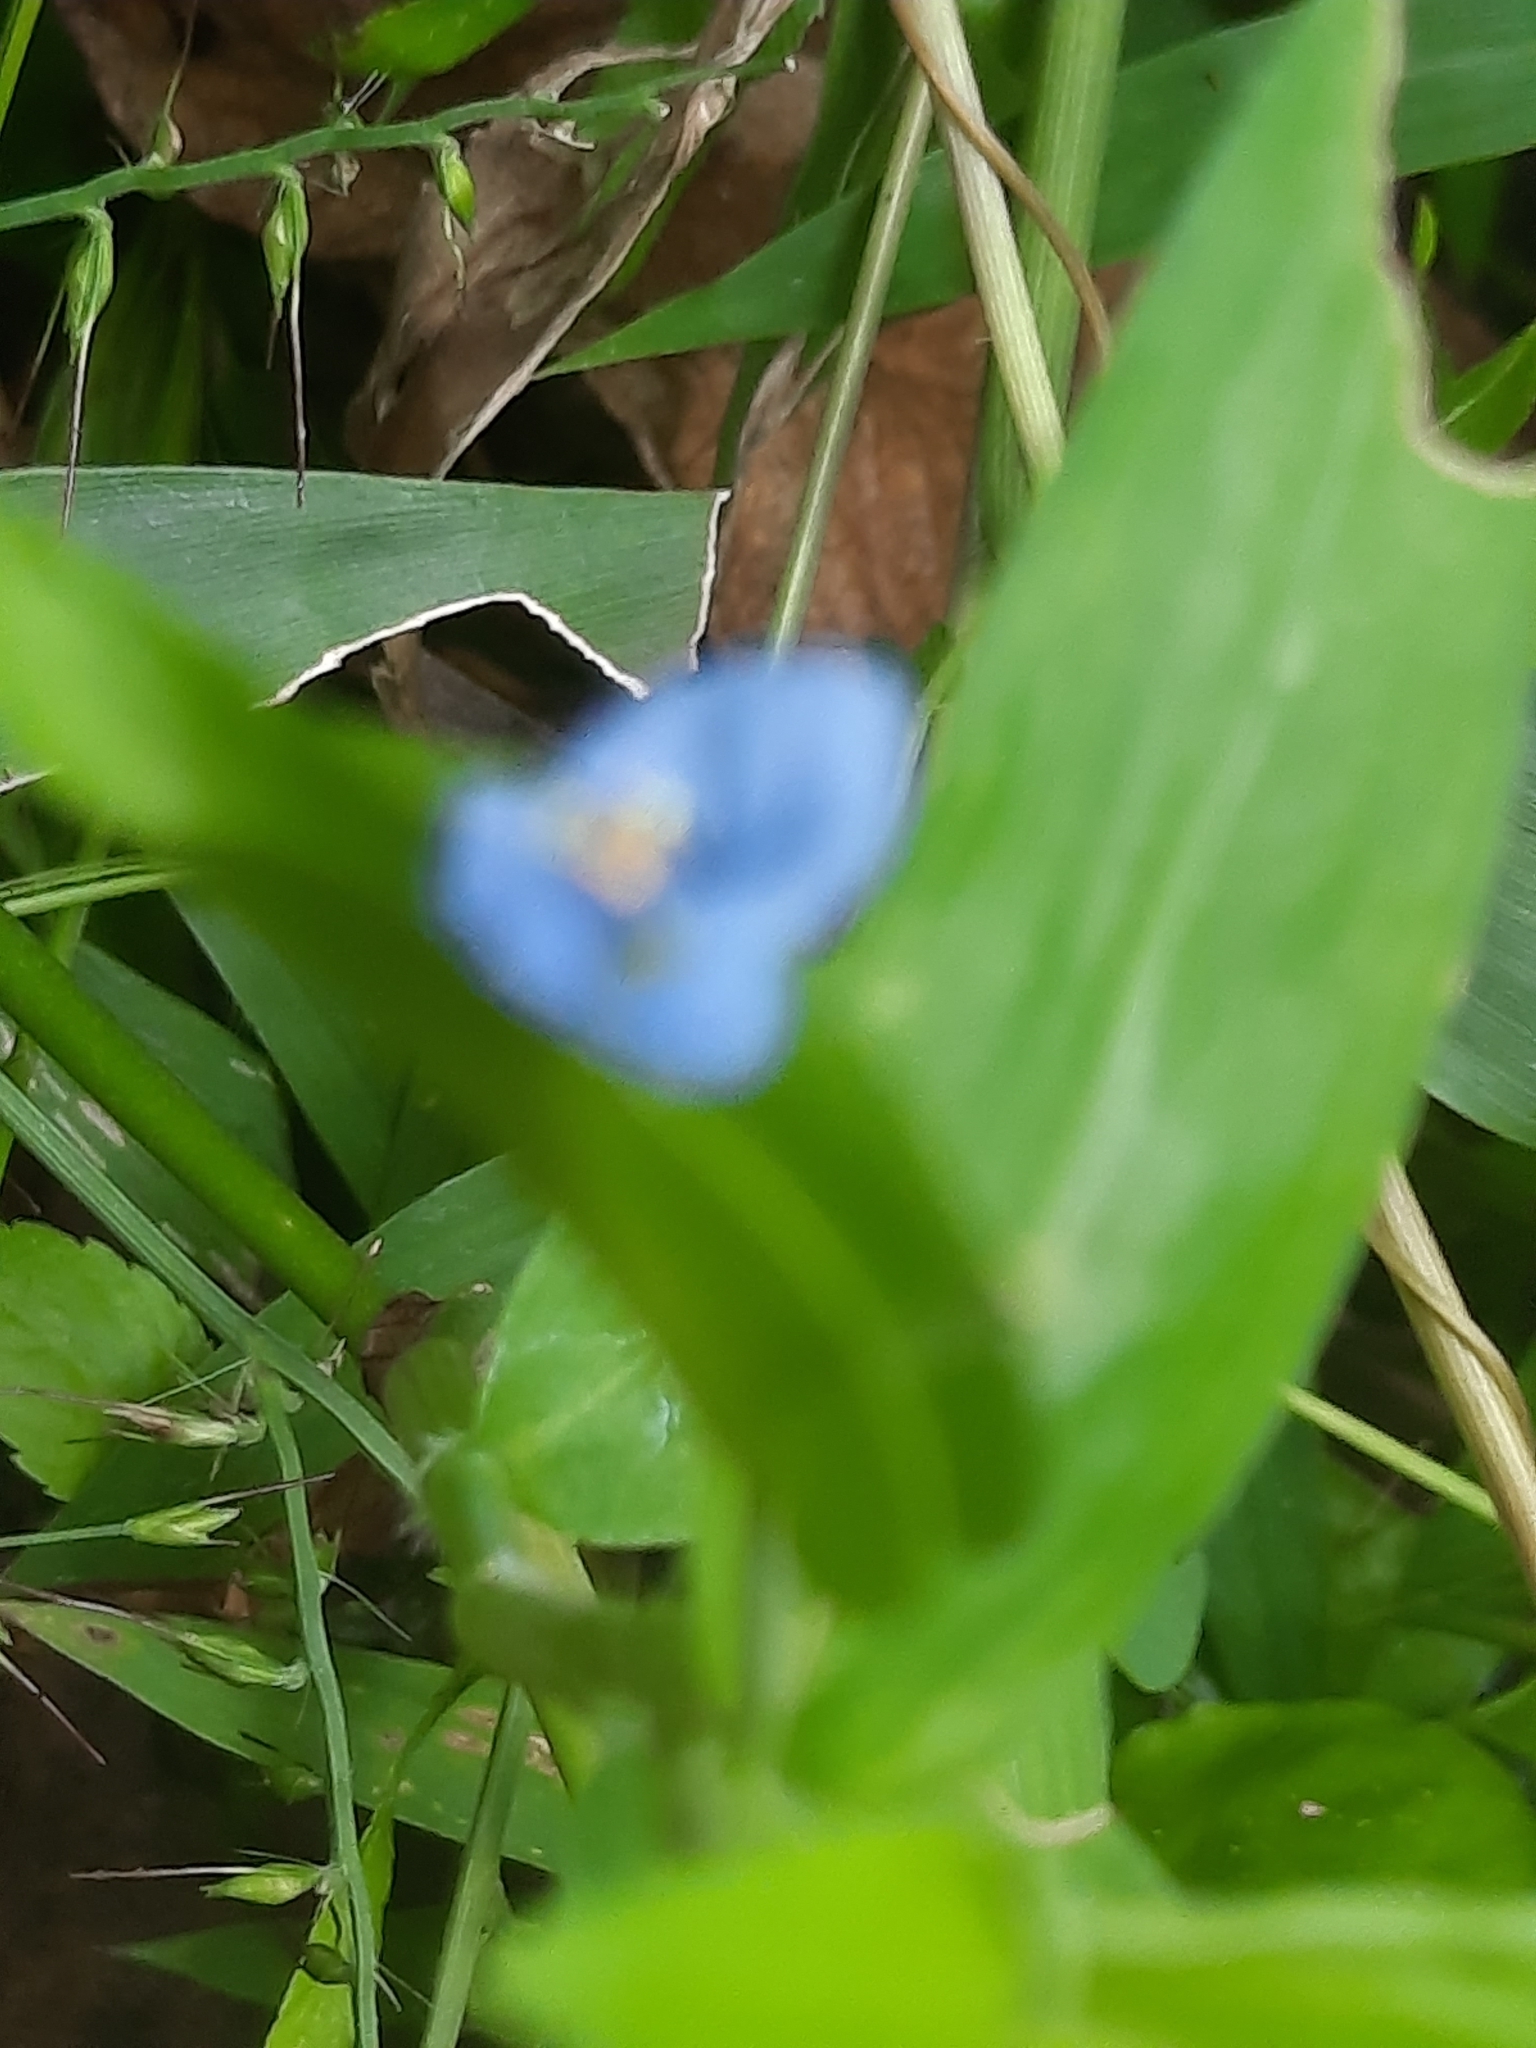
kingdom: Plantae
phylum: Tracheophyta
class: Liliopsida
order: Commelinales
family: Commelinaceae
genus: Commelina
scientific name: Commelina diffusa
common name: Climbing dayflower
